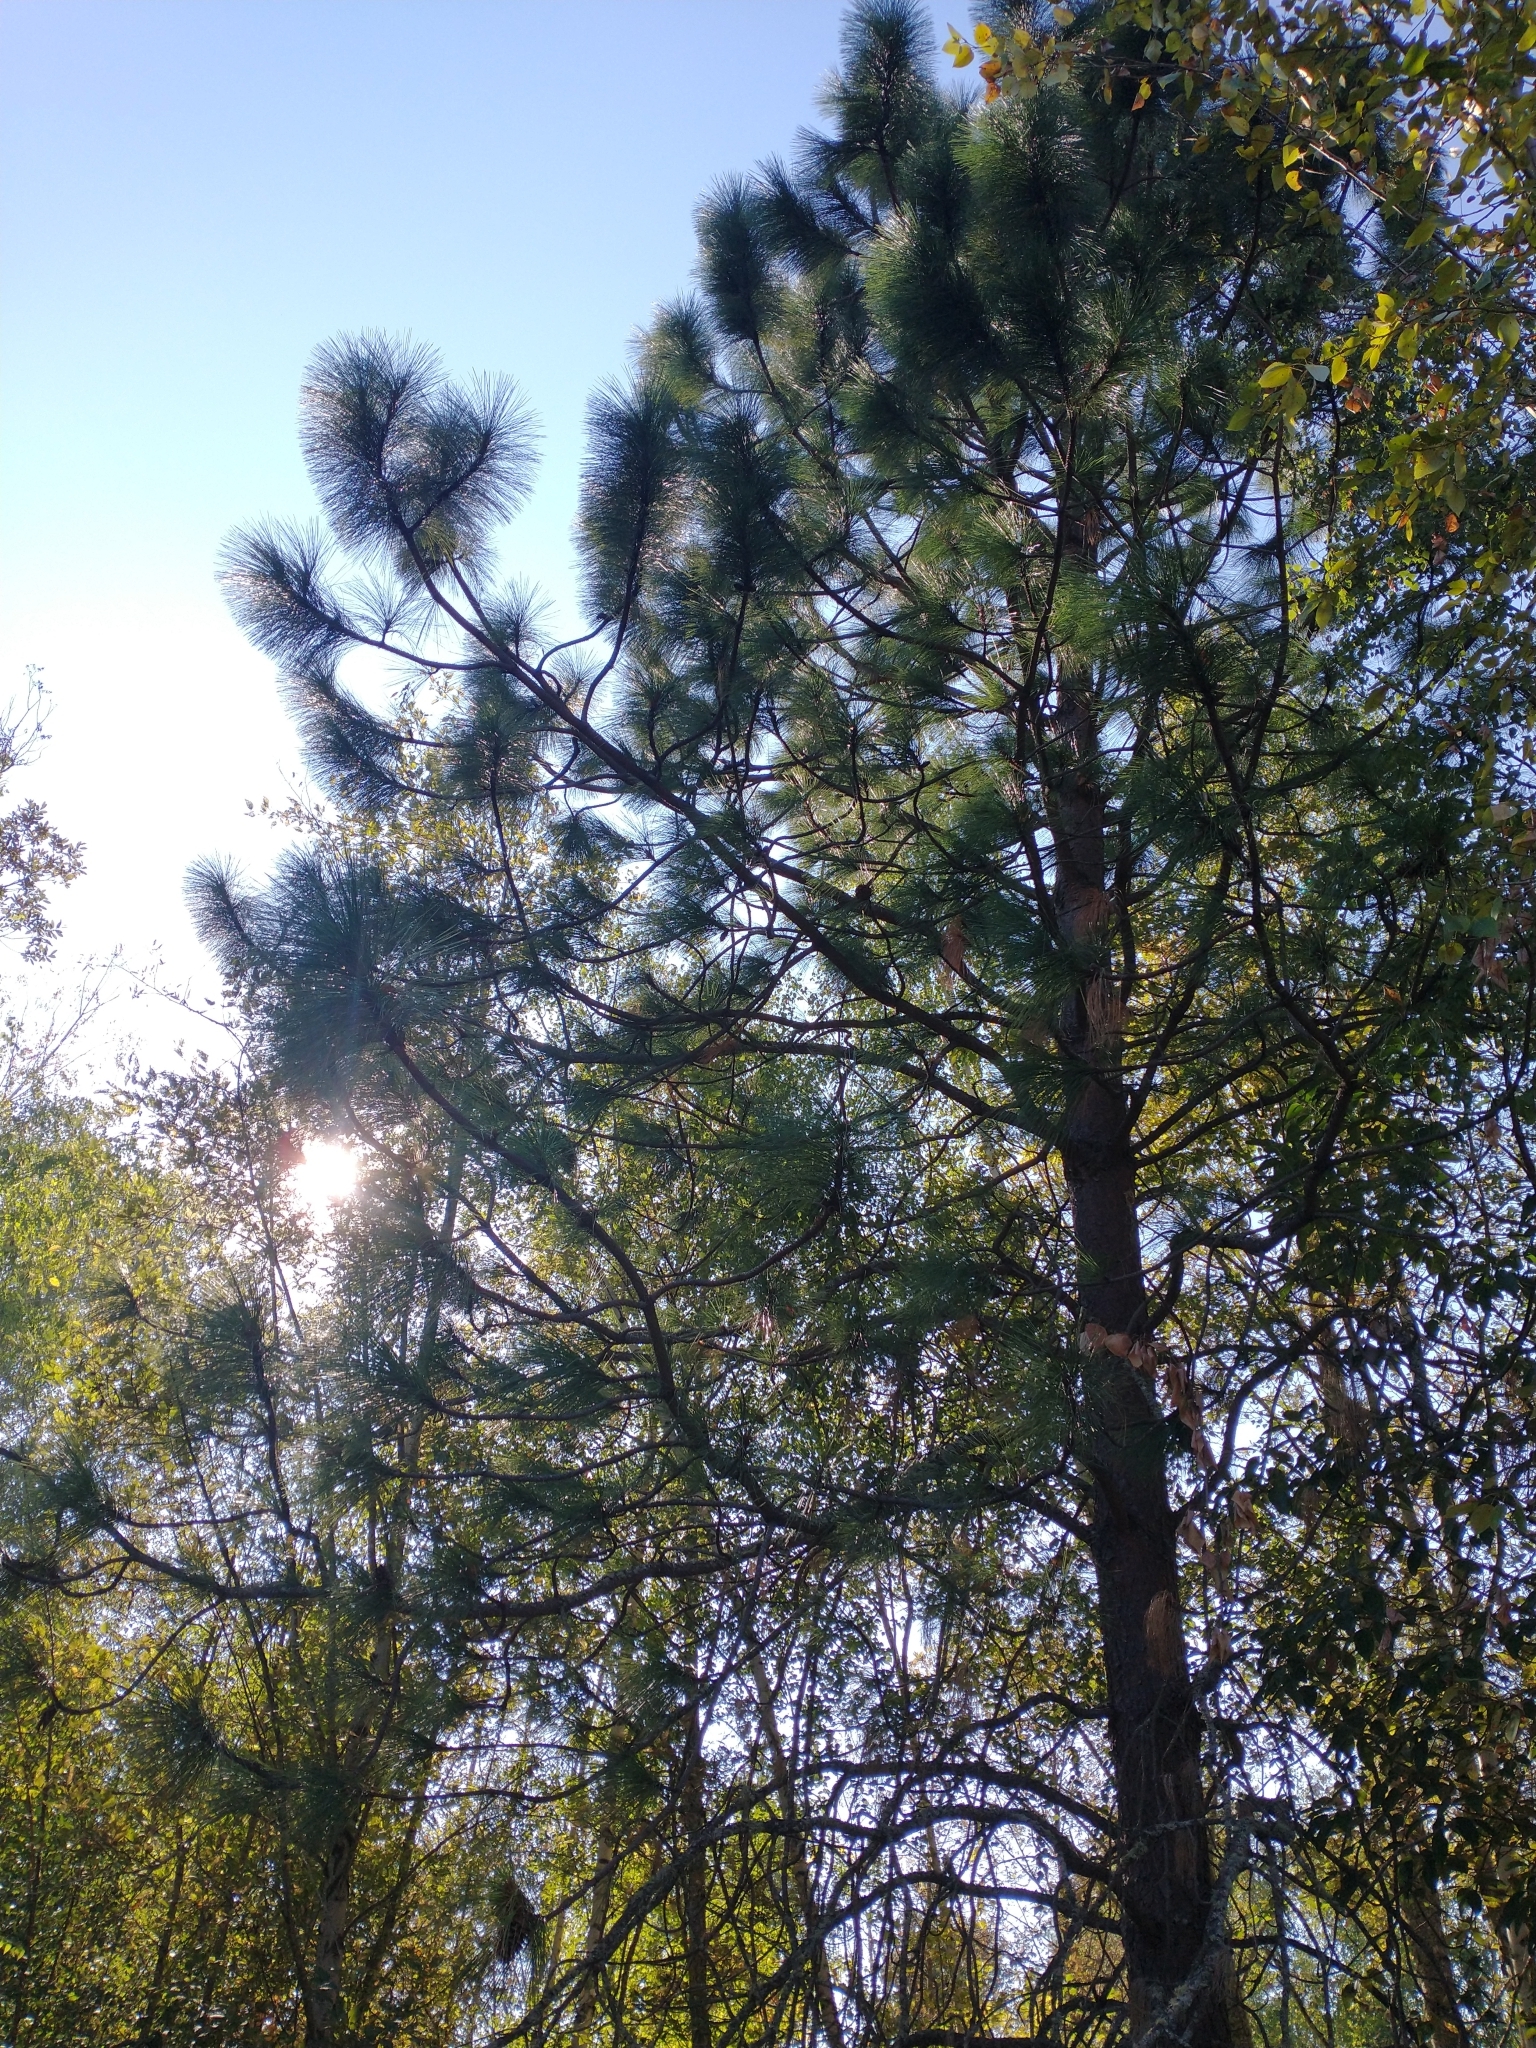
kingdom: Plantae
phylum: Tracheophyta
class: Pinopsida
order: Pinales
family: Pinaceae
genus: Pinus
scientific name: Pinus ponderosa
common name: Western yellow-pine
